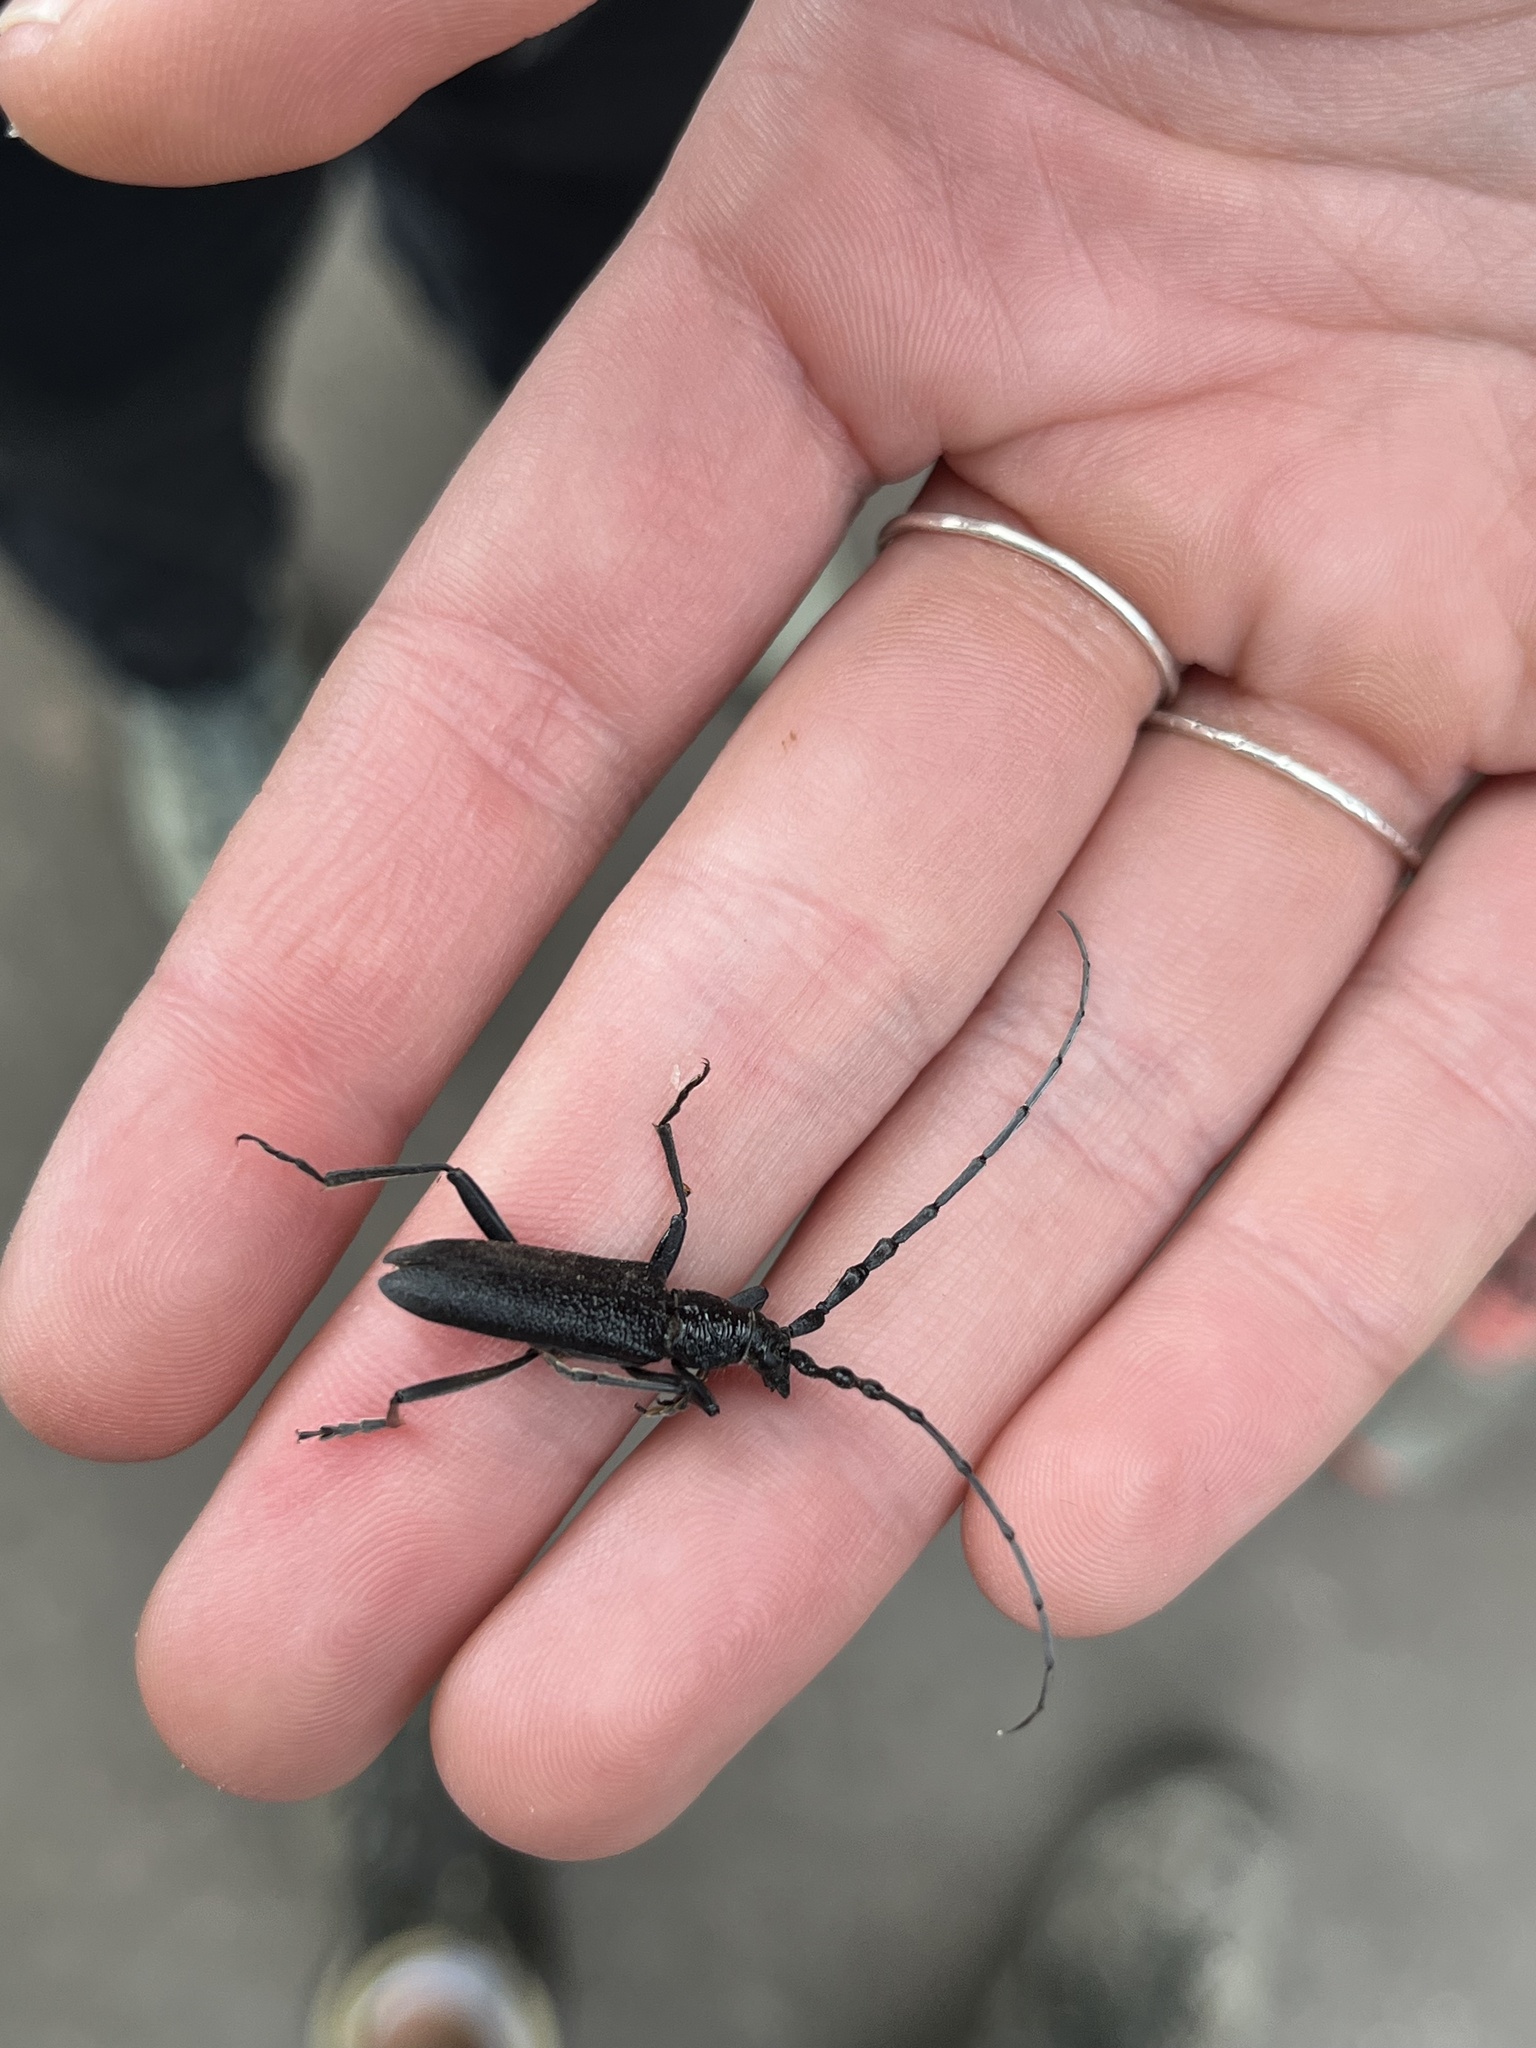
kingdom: Animalia
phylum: Arthropoda
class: Insecta
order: Coleoptera
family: Cerambycidae
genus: Cerambyx
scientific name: Cerambyx scopolii
